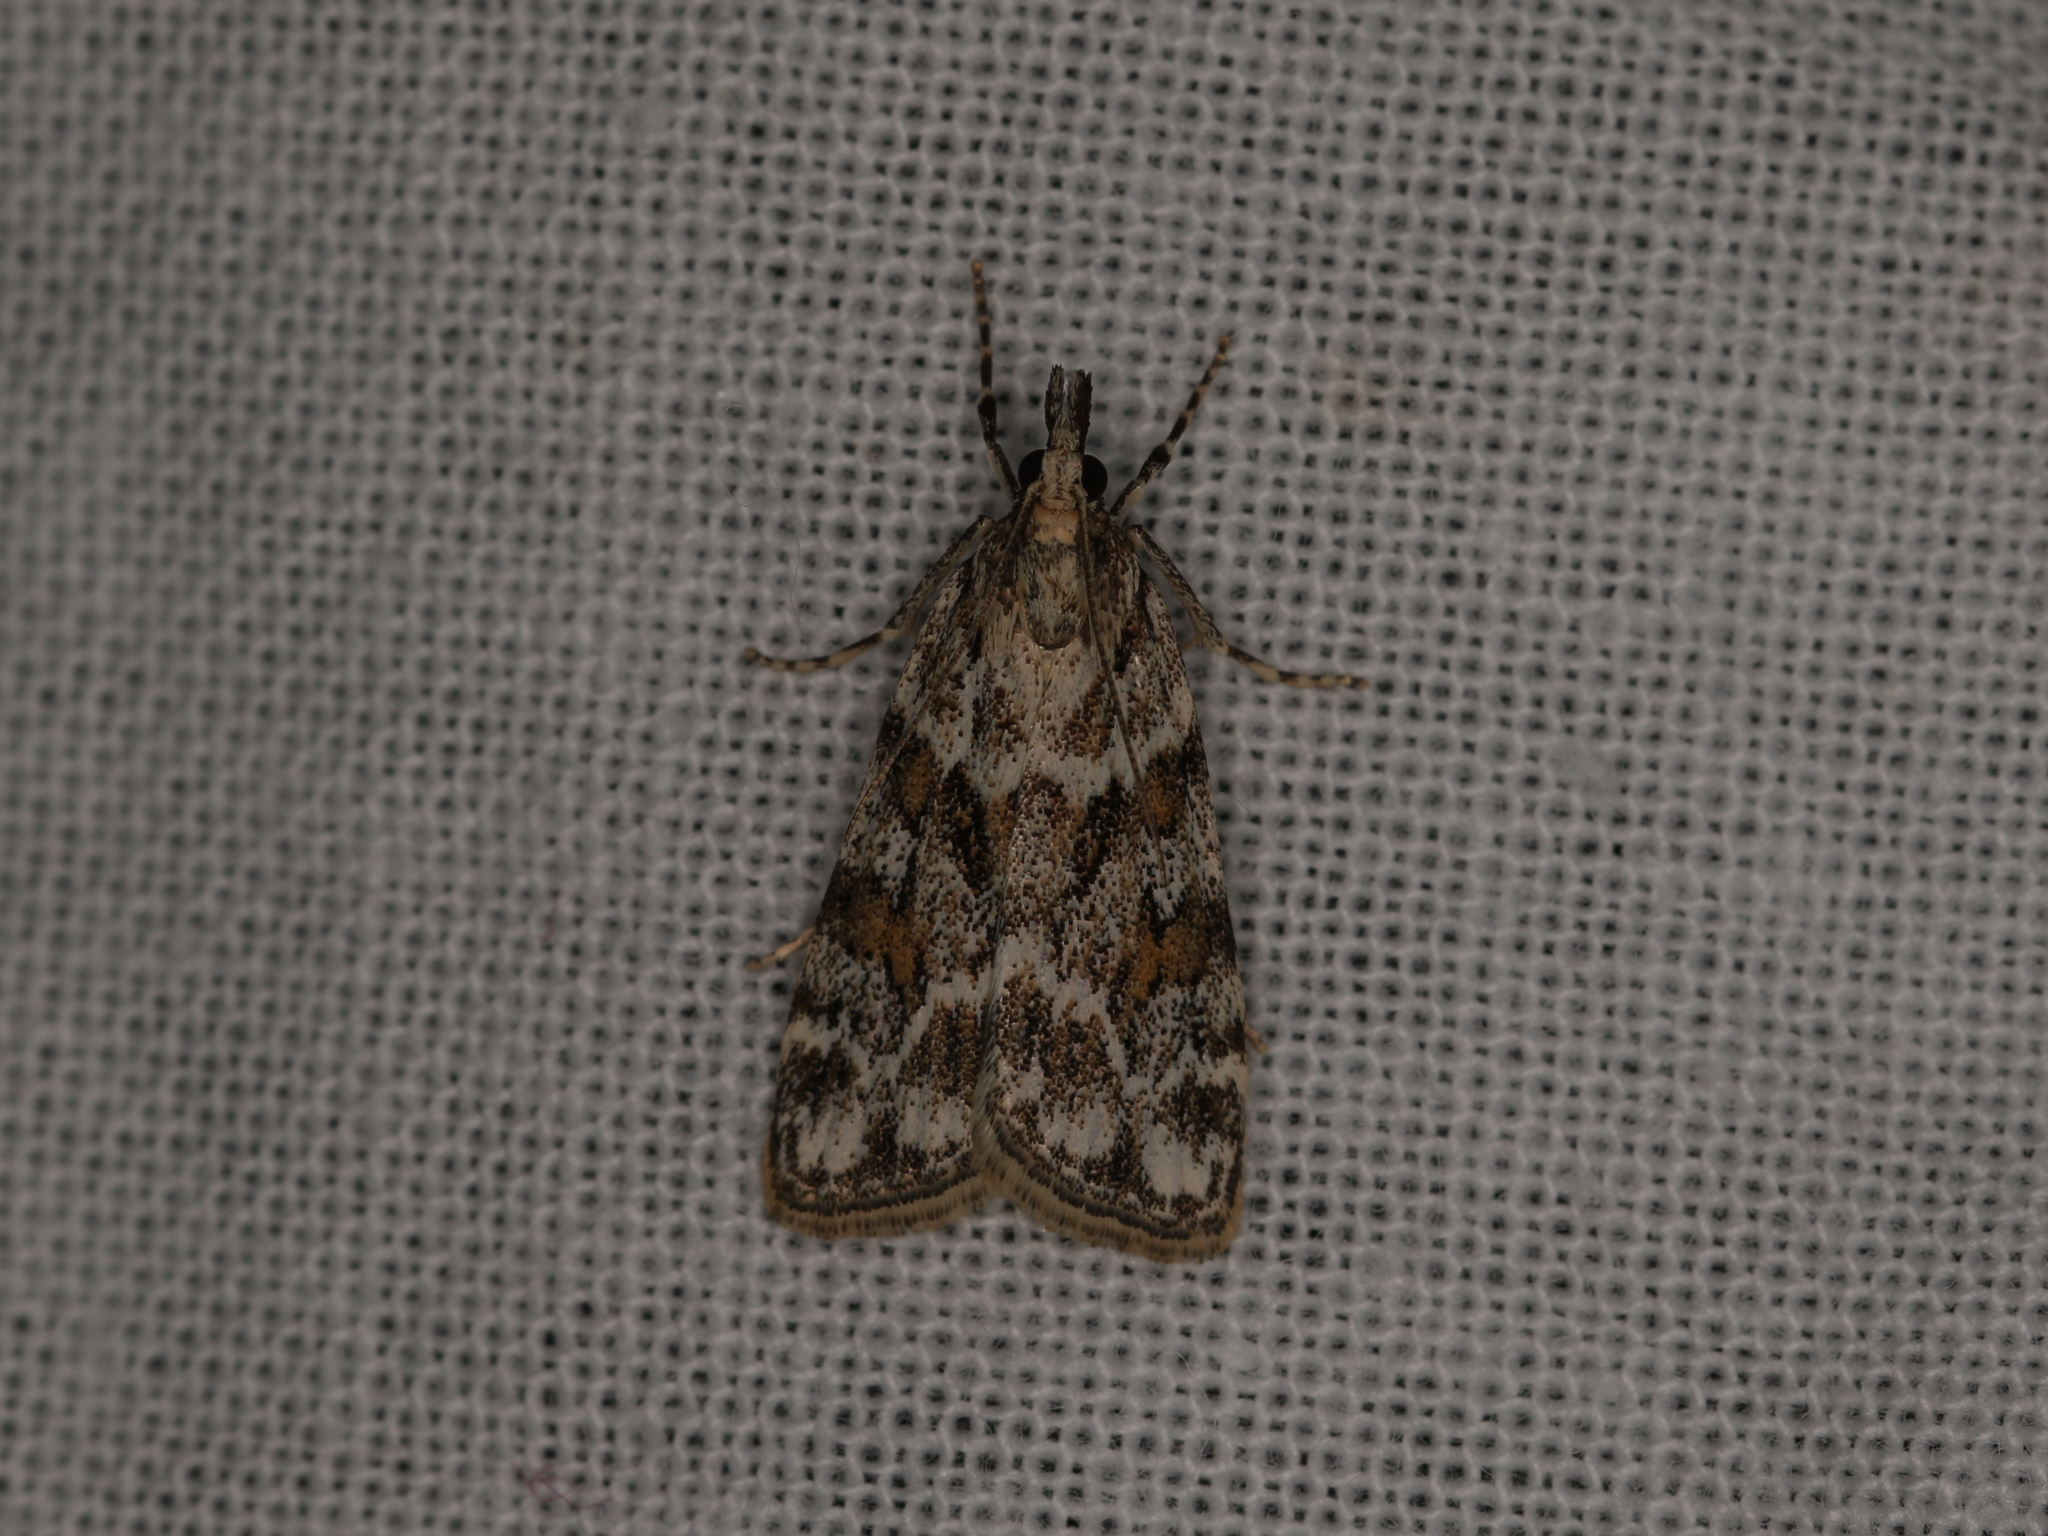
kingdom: Animalia
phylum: Arthropoda
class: Insecta
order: Lepidoptera
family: Crambidae
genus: Scoparia
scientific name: Scoparia pyralella
